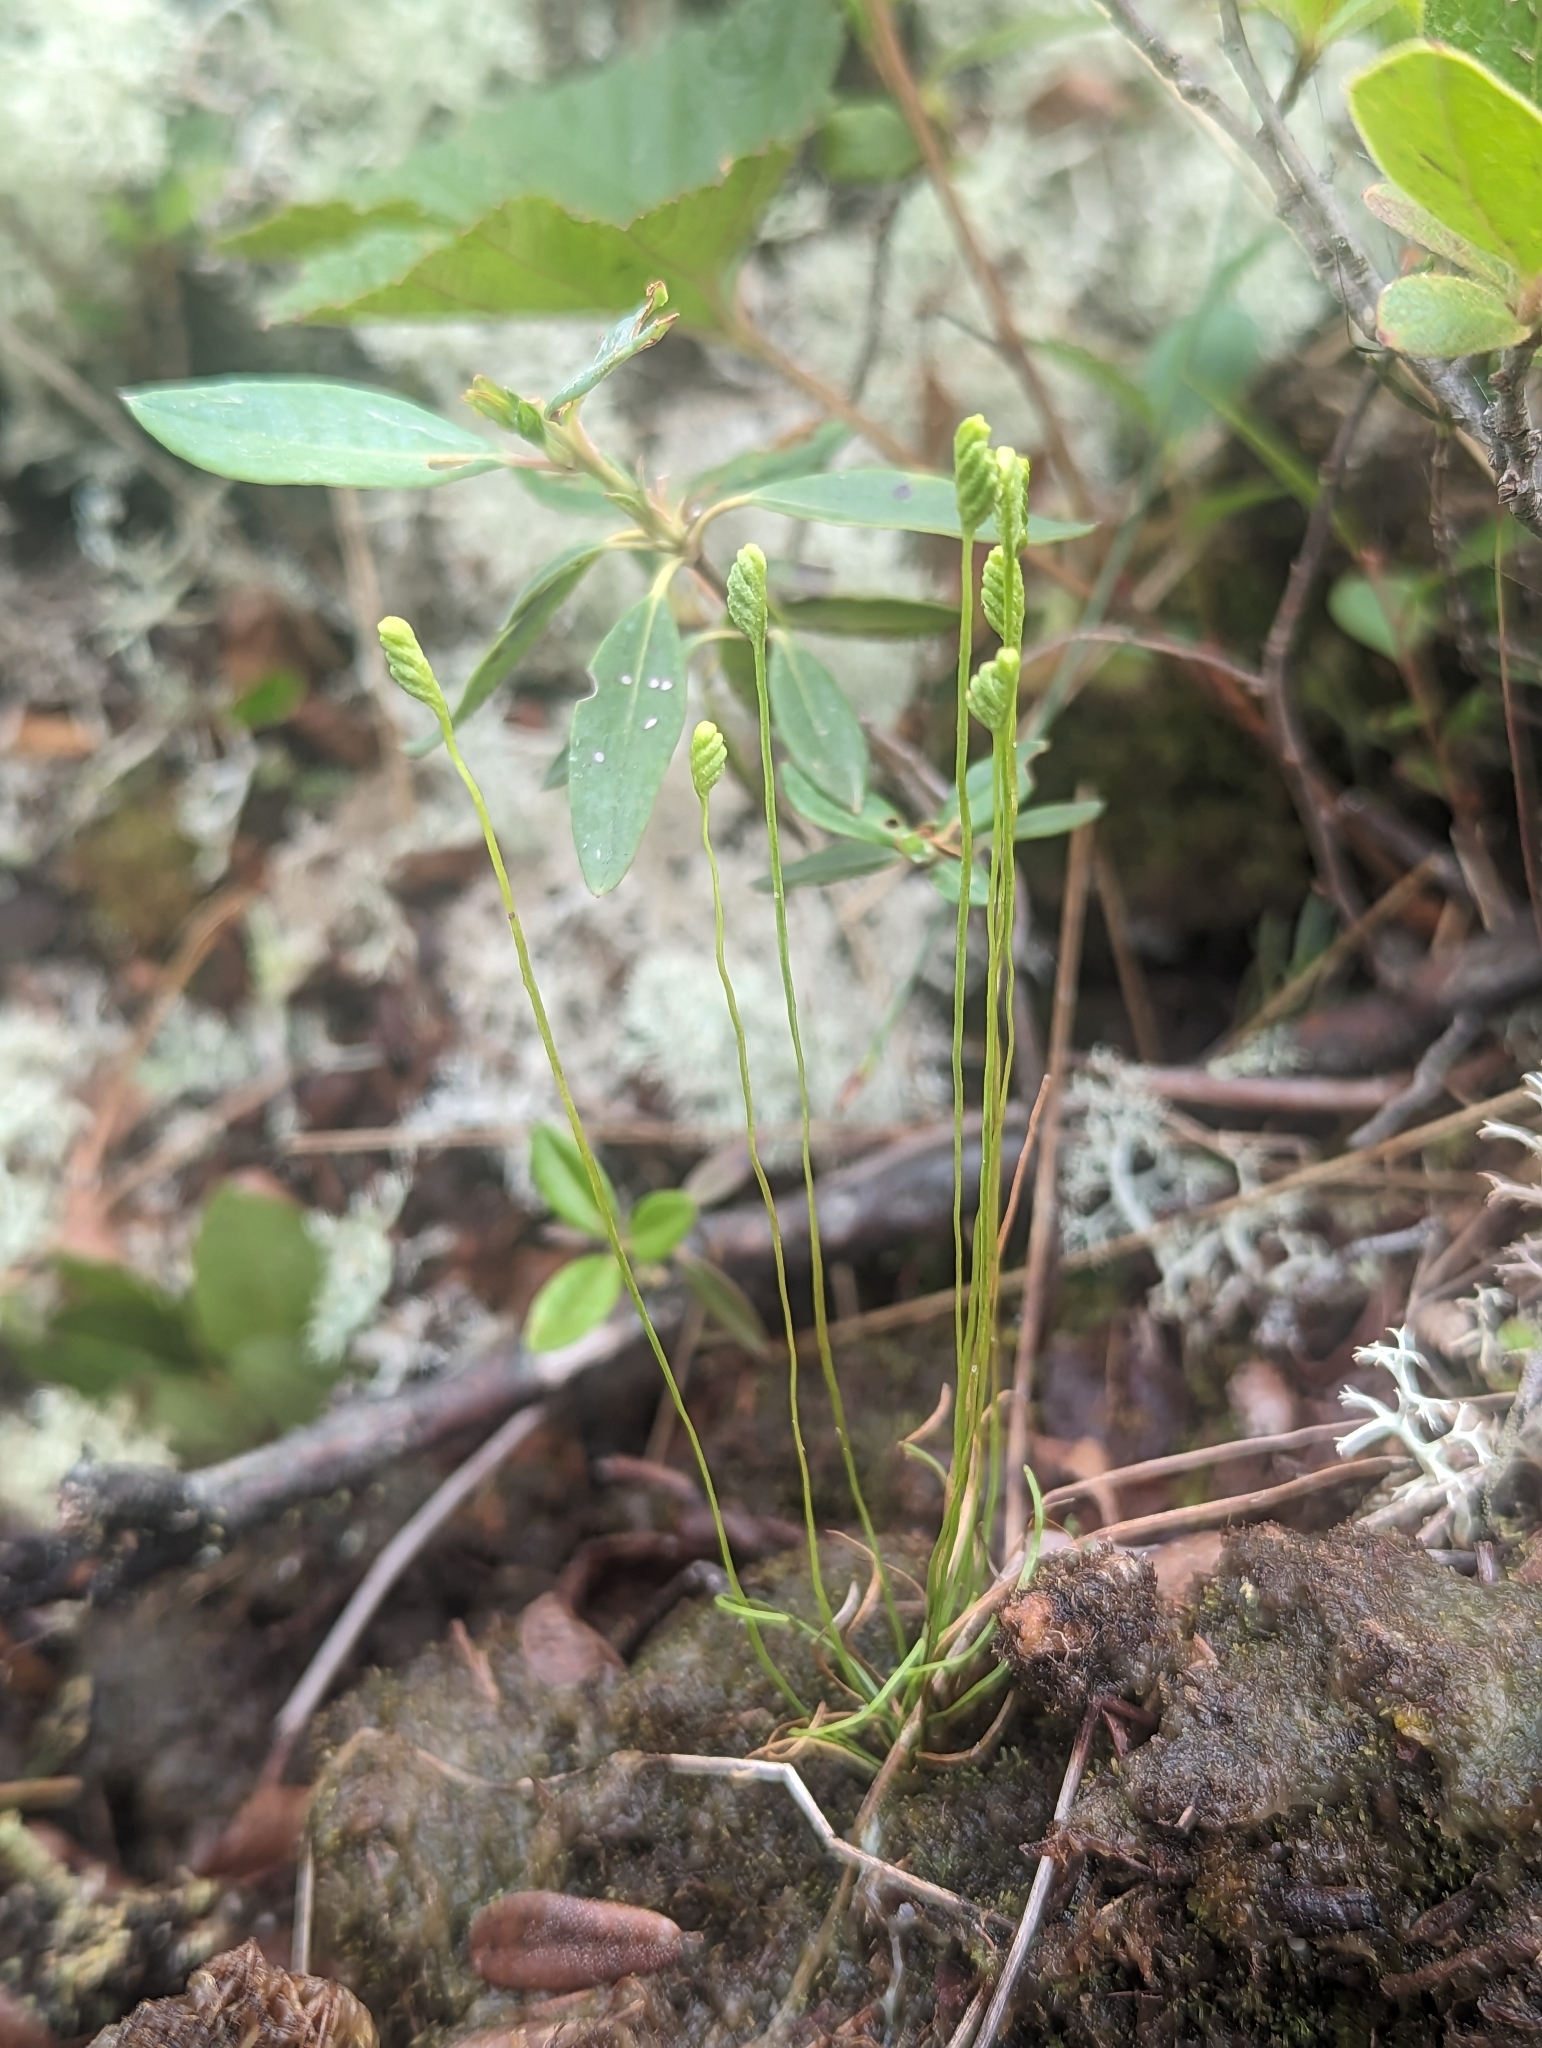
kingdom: Plantae
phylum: Tracheophyta
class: Polypodiopsida
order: Schizaeales
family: Schizaeaceae
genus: Schizaea
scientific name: Schizaea pusilla
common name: Curly-grass fern
